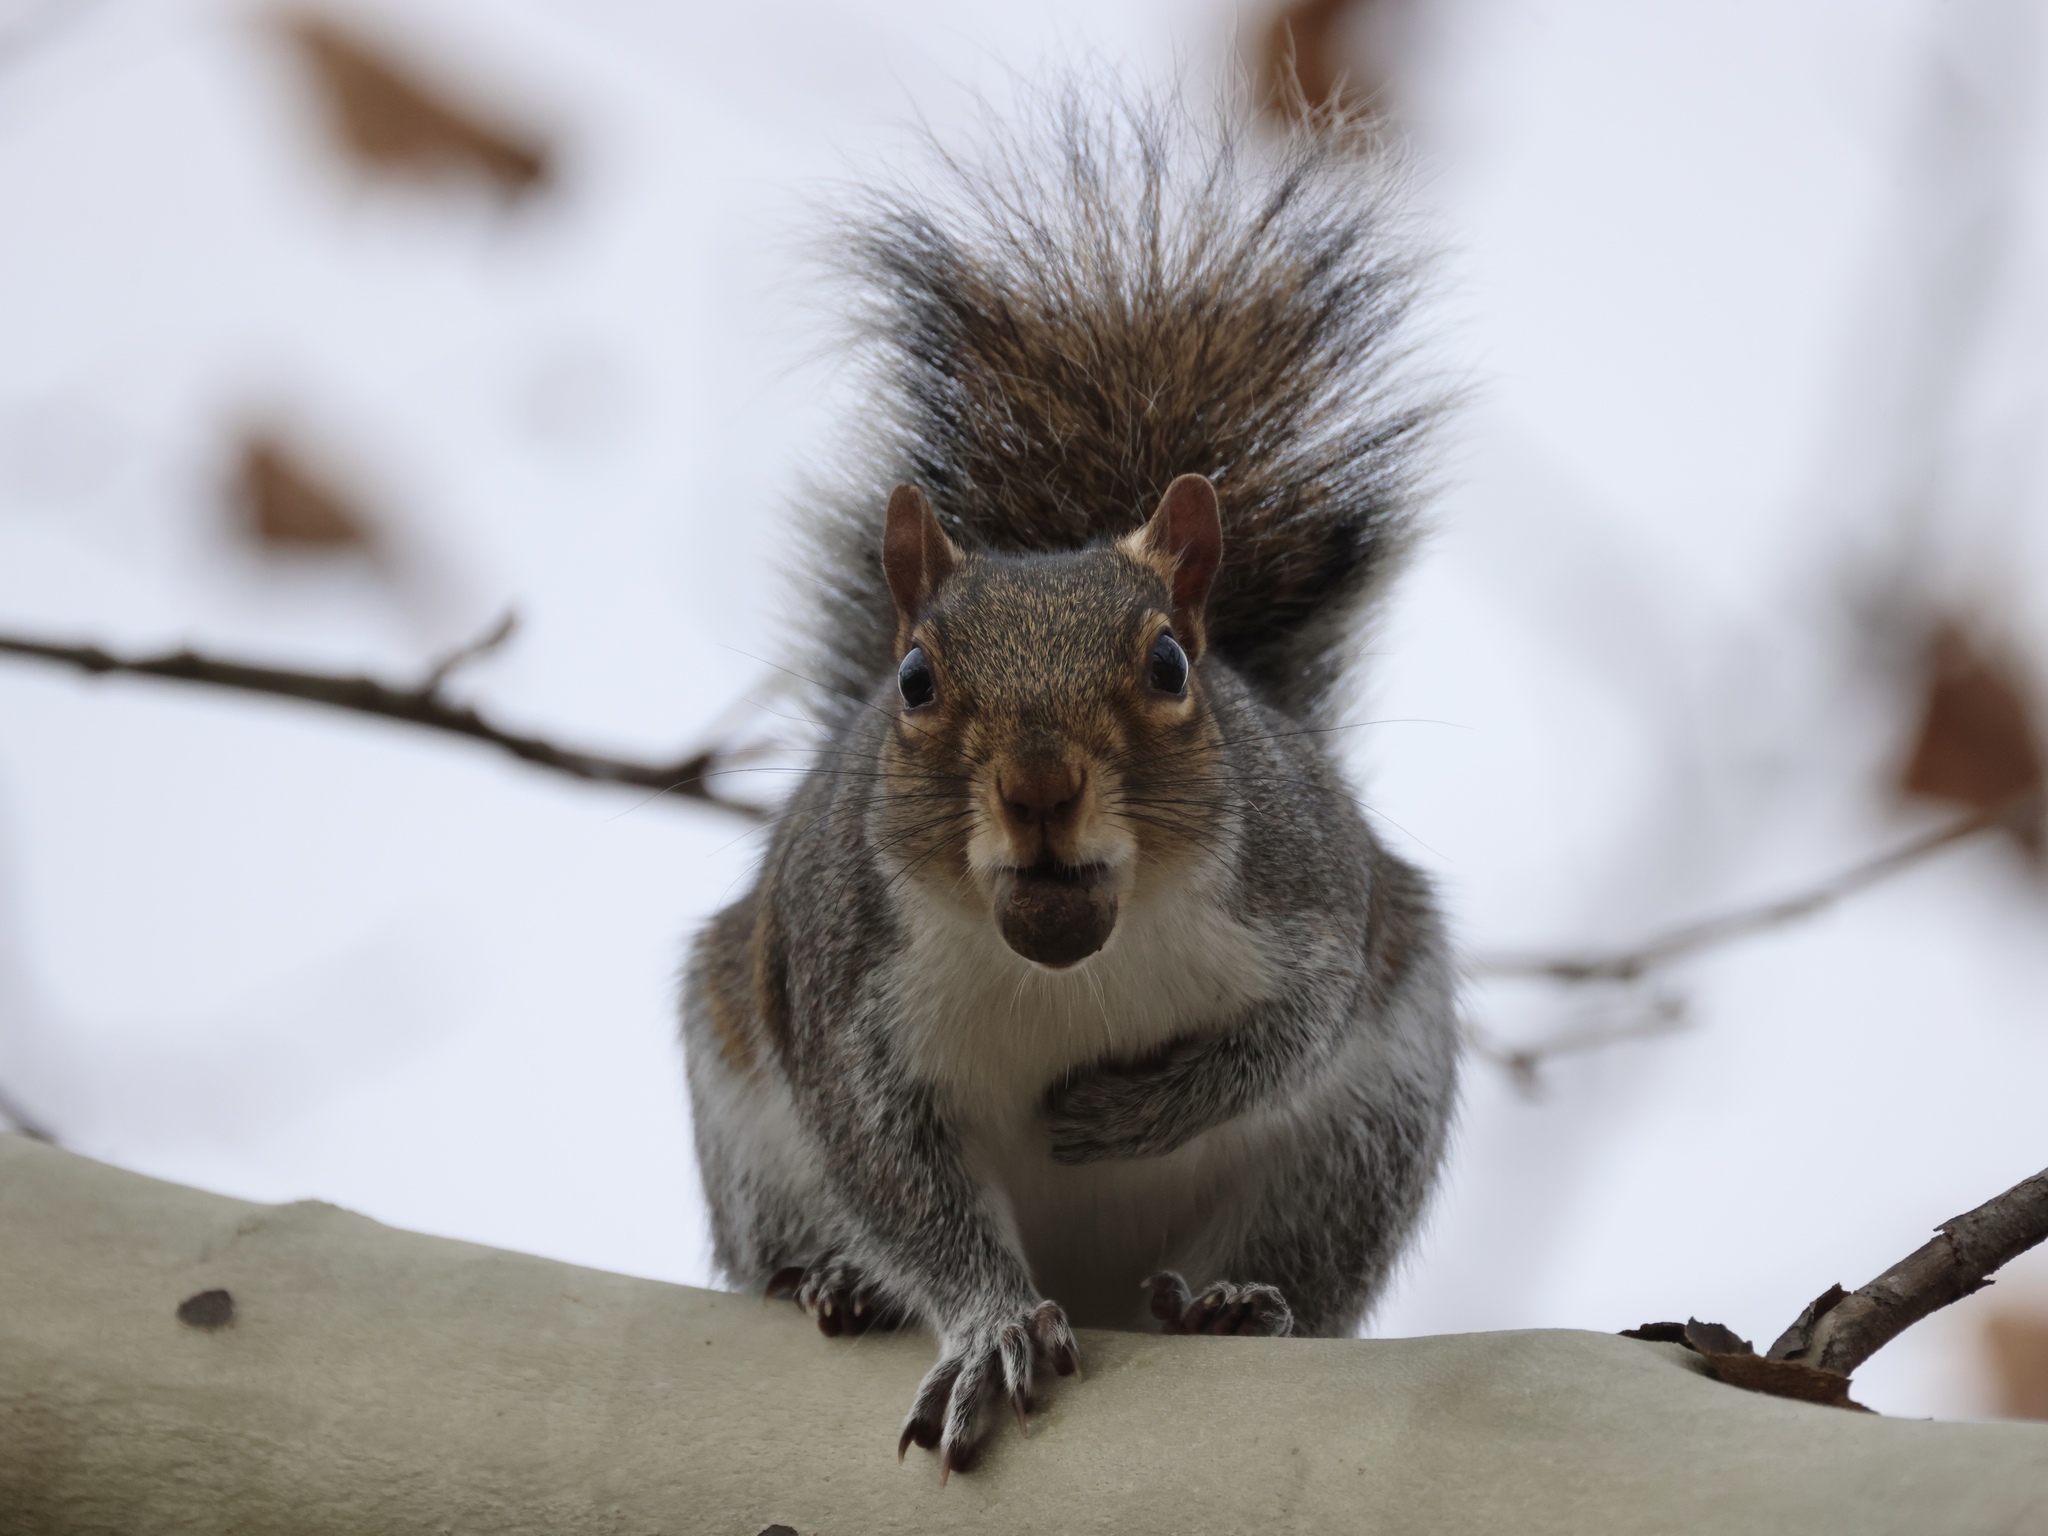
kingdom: Animalia
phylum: Chordata
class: Mammalia
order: Rodentia
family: Sciuridae
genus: Sciurus
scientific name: Sciurus carolinensis
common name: Eastern gray squirrel
